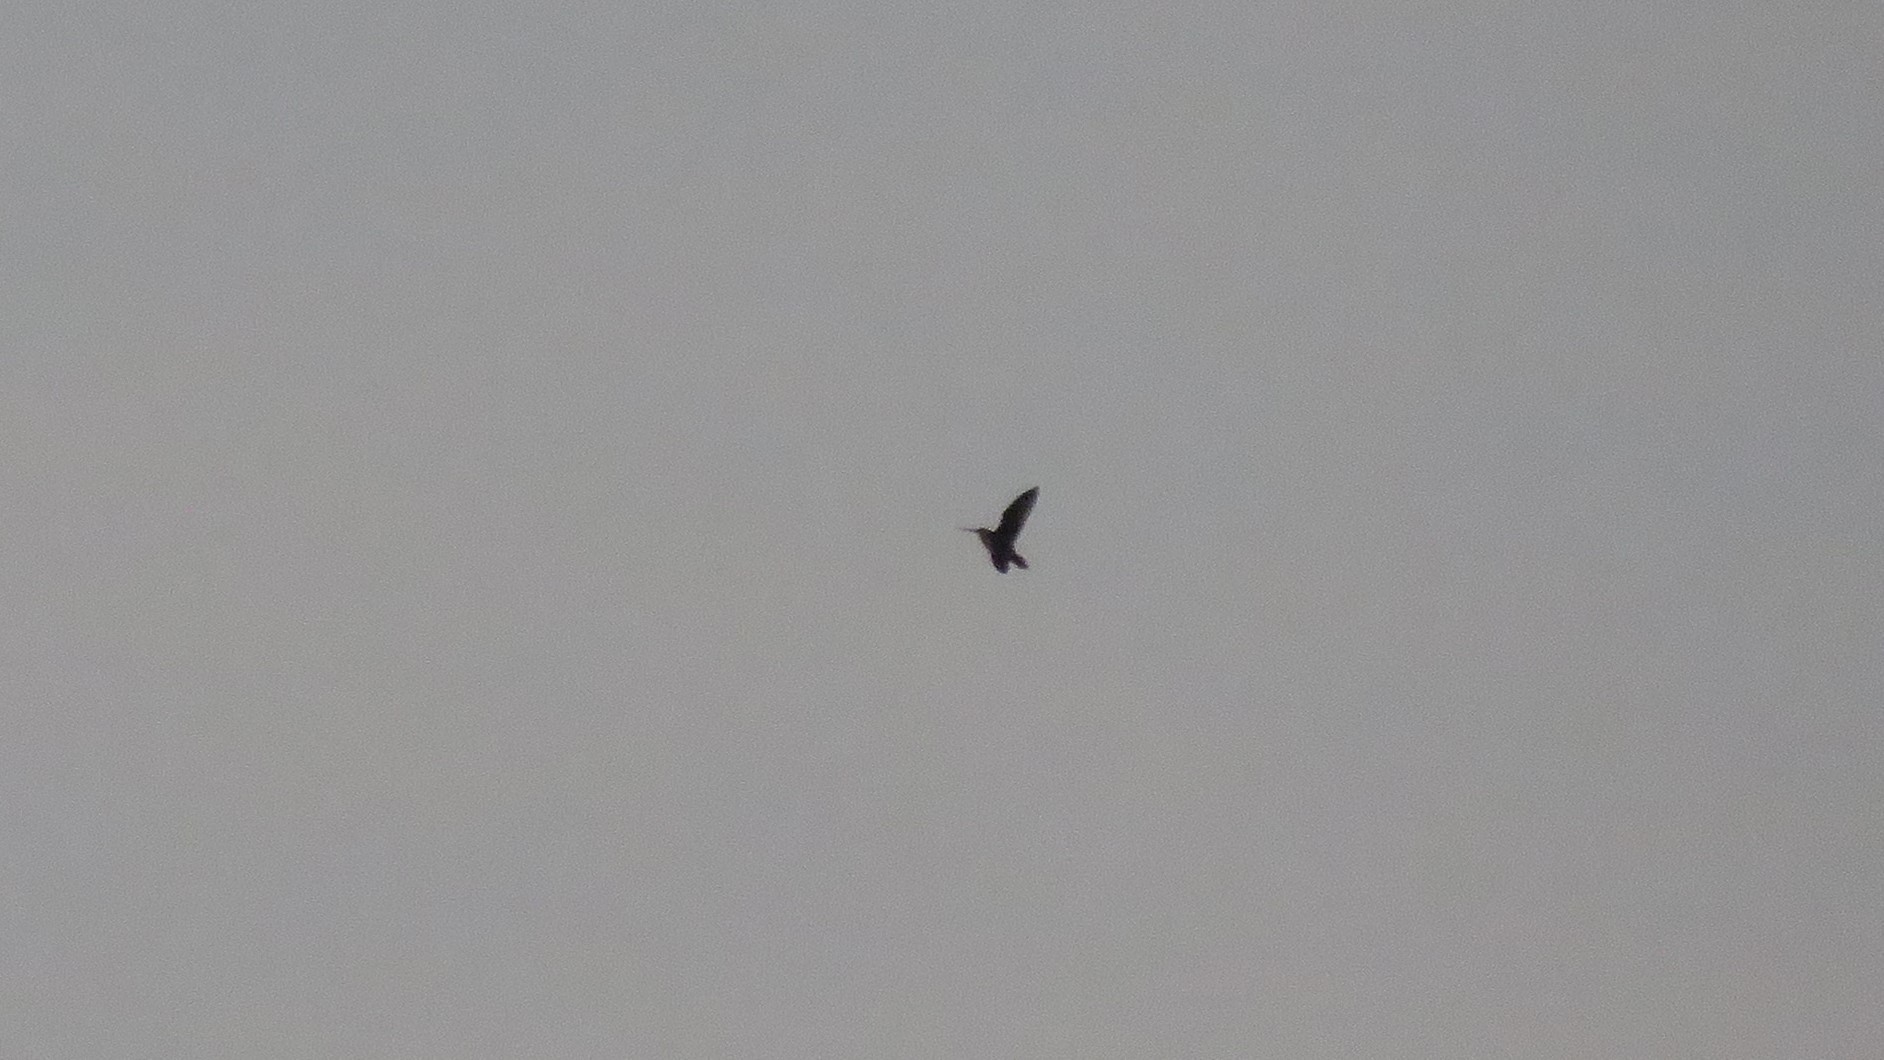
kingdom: Animalia
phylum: Chordata
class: Aves
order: Charadriiformes
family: Scolopacidae
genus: Gallinago
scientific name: Gallinago delicata
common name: Wilson's snipe
